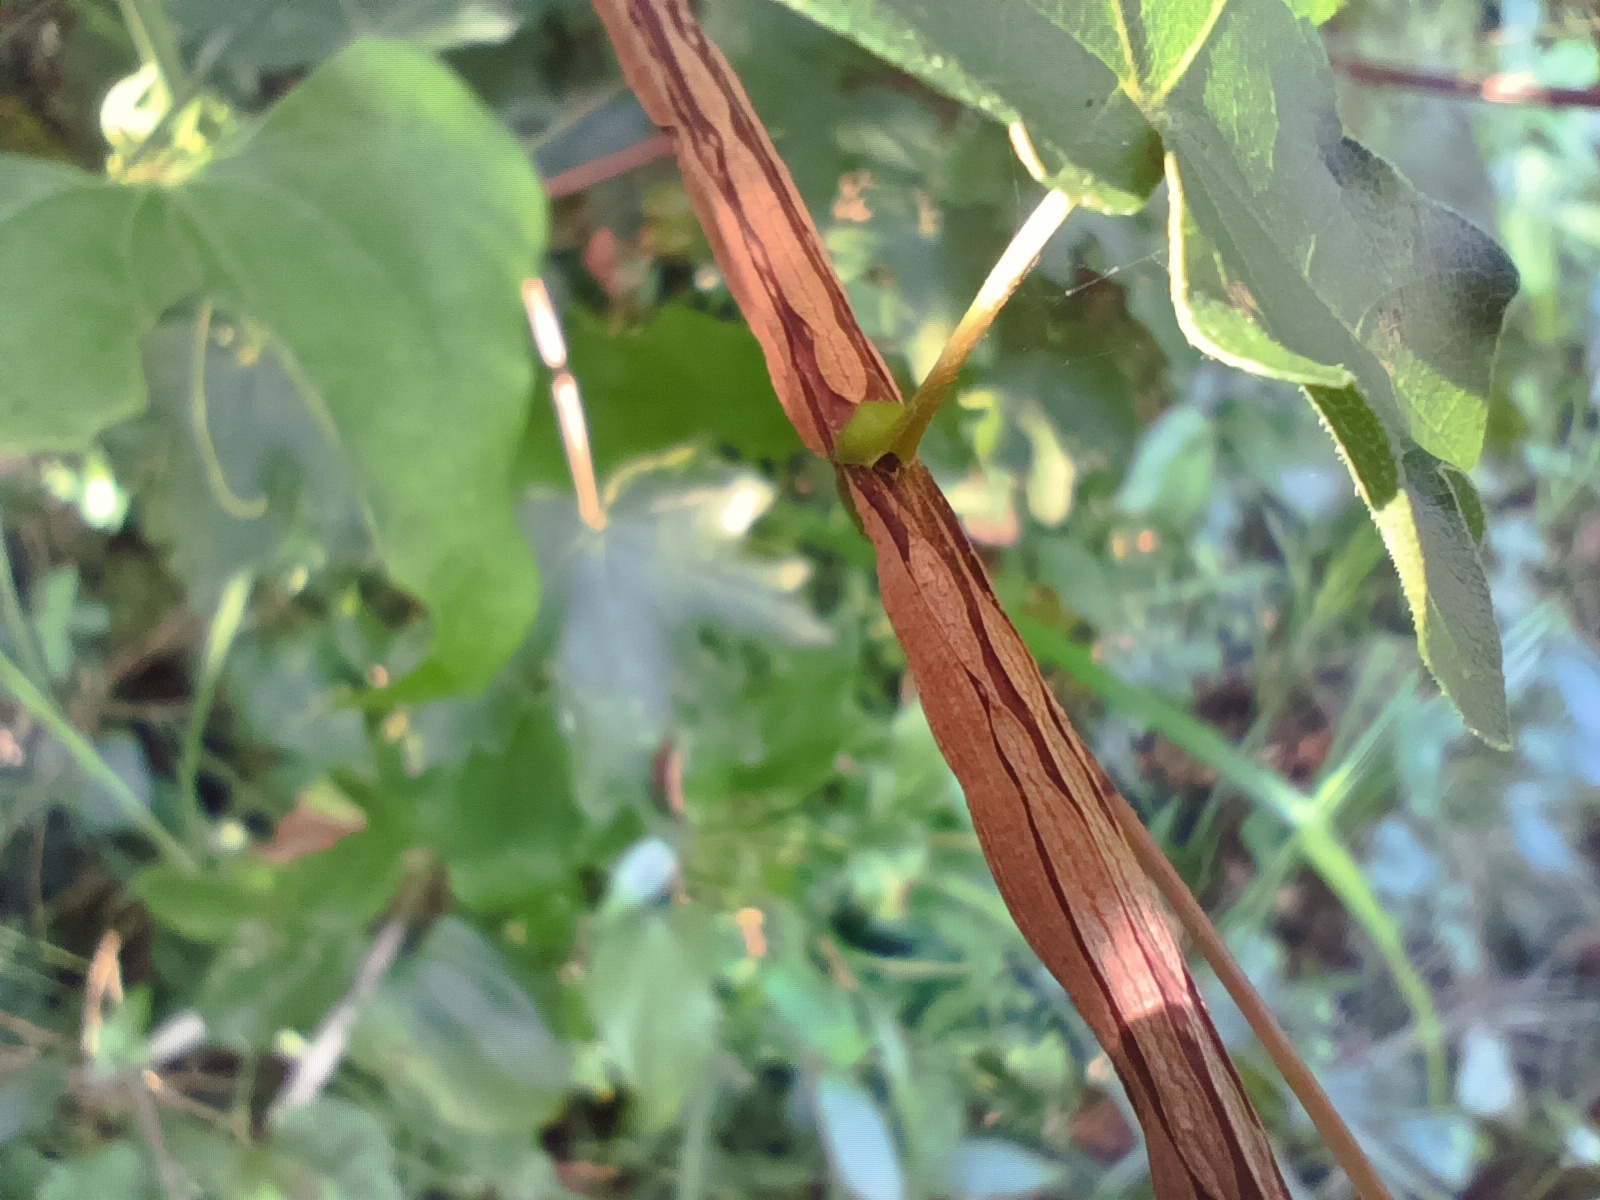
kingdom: Plantae
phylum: Tracheophyta
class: Magnoliopsida
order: Sapindales
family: Sapindaceae
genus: Acer
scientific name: Acer campestre
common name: Field maple
